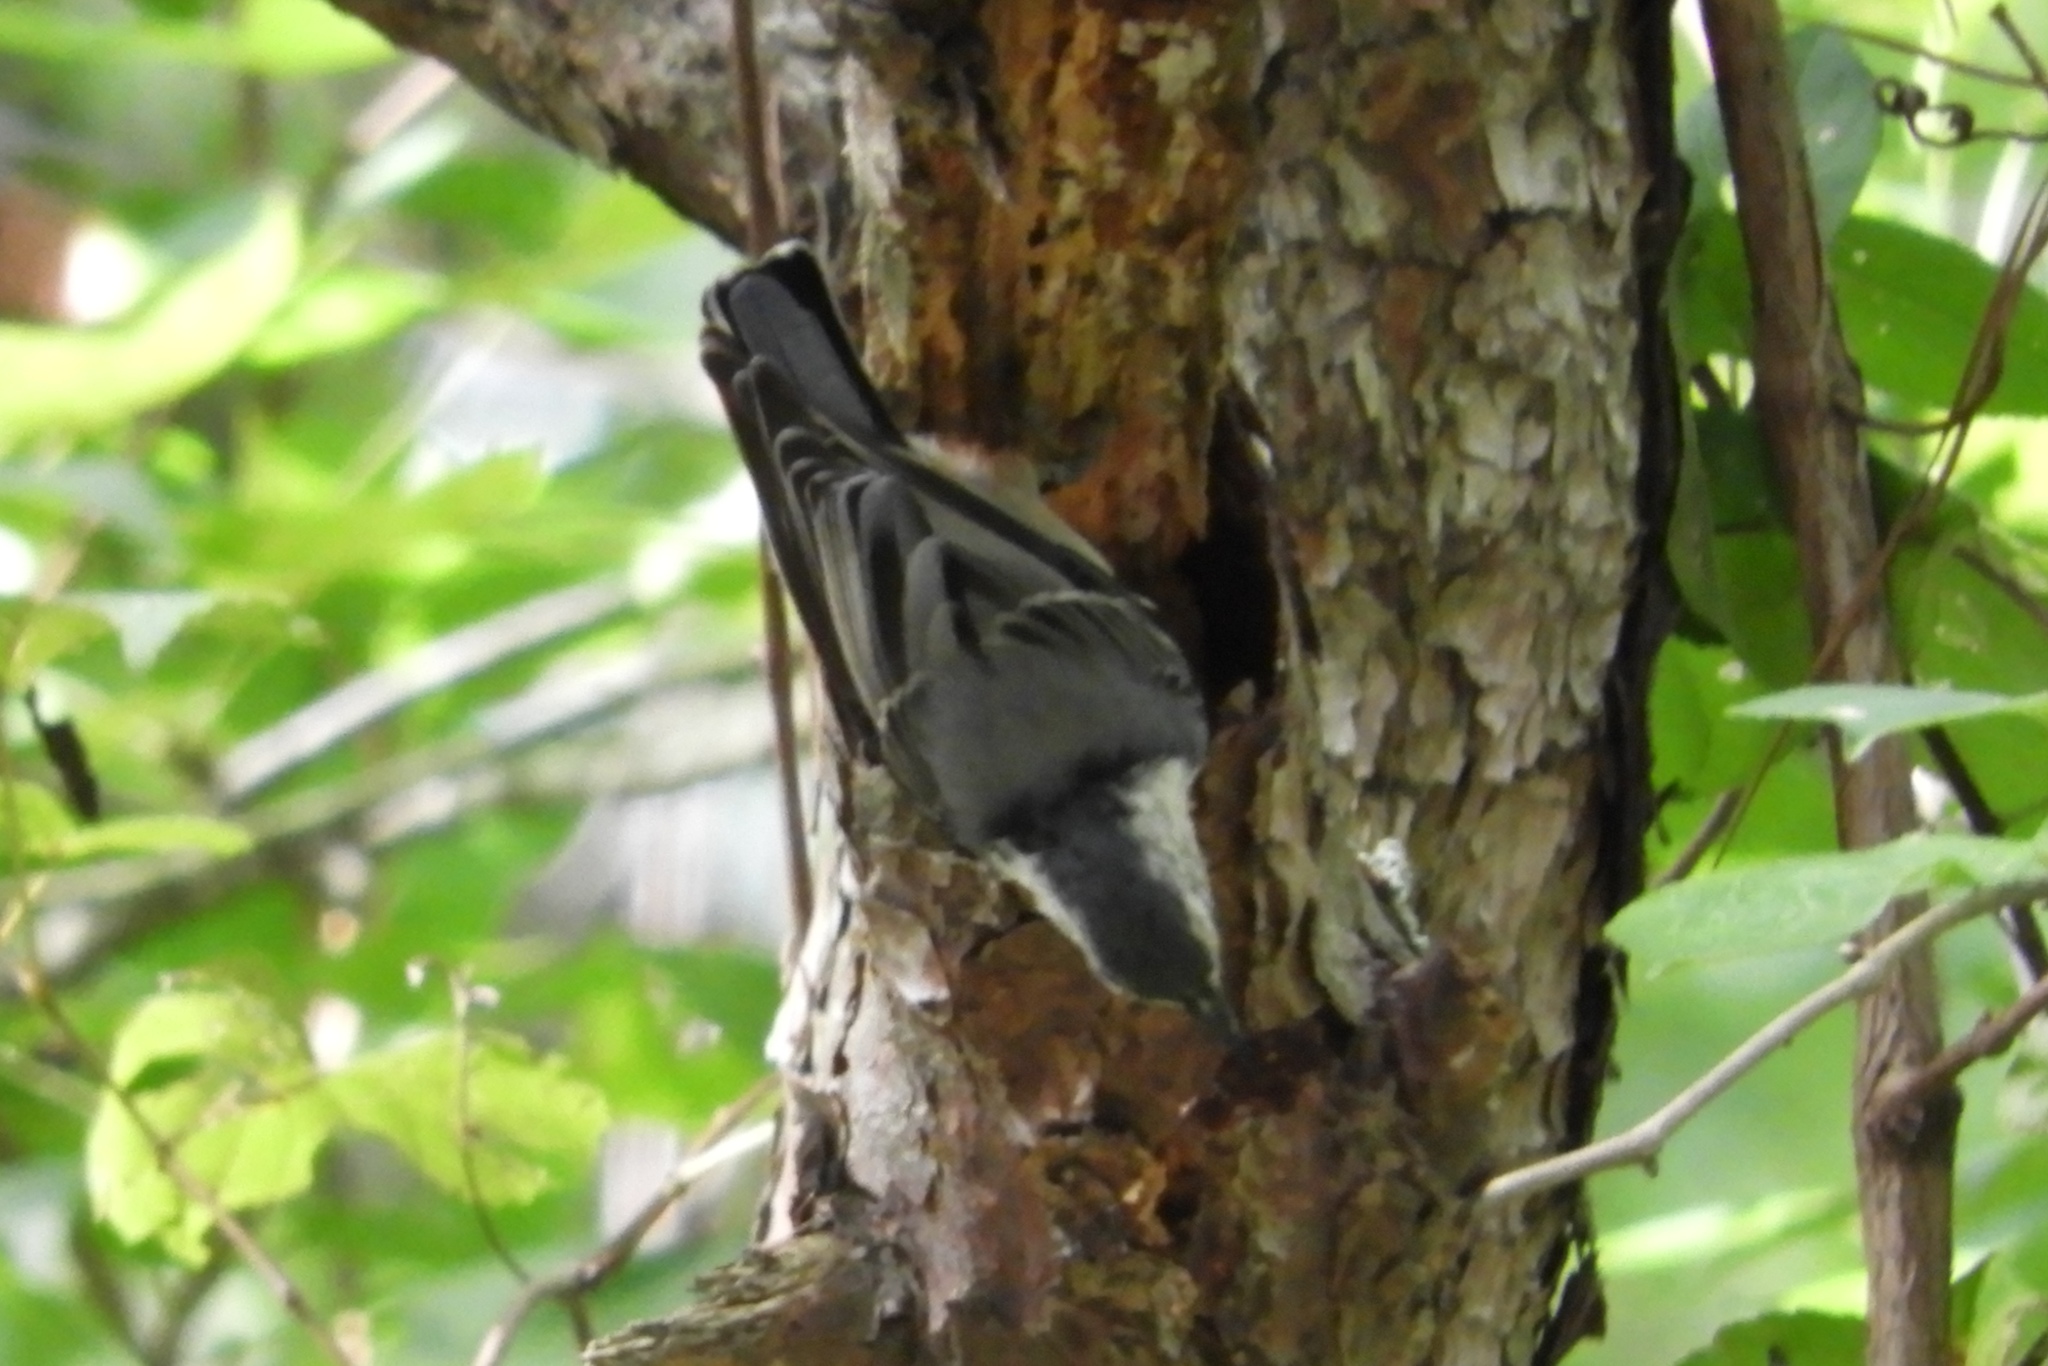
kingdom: Animalia
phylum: Chordata
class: Aves
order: Passeriformes
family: Sittidae
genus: Sitta
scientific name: Sitta carolinensis
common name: White-breasted nuthatch
